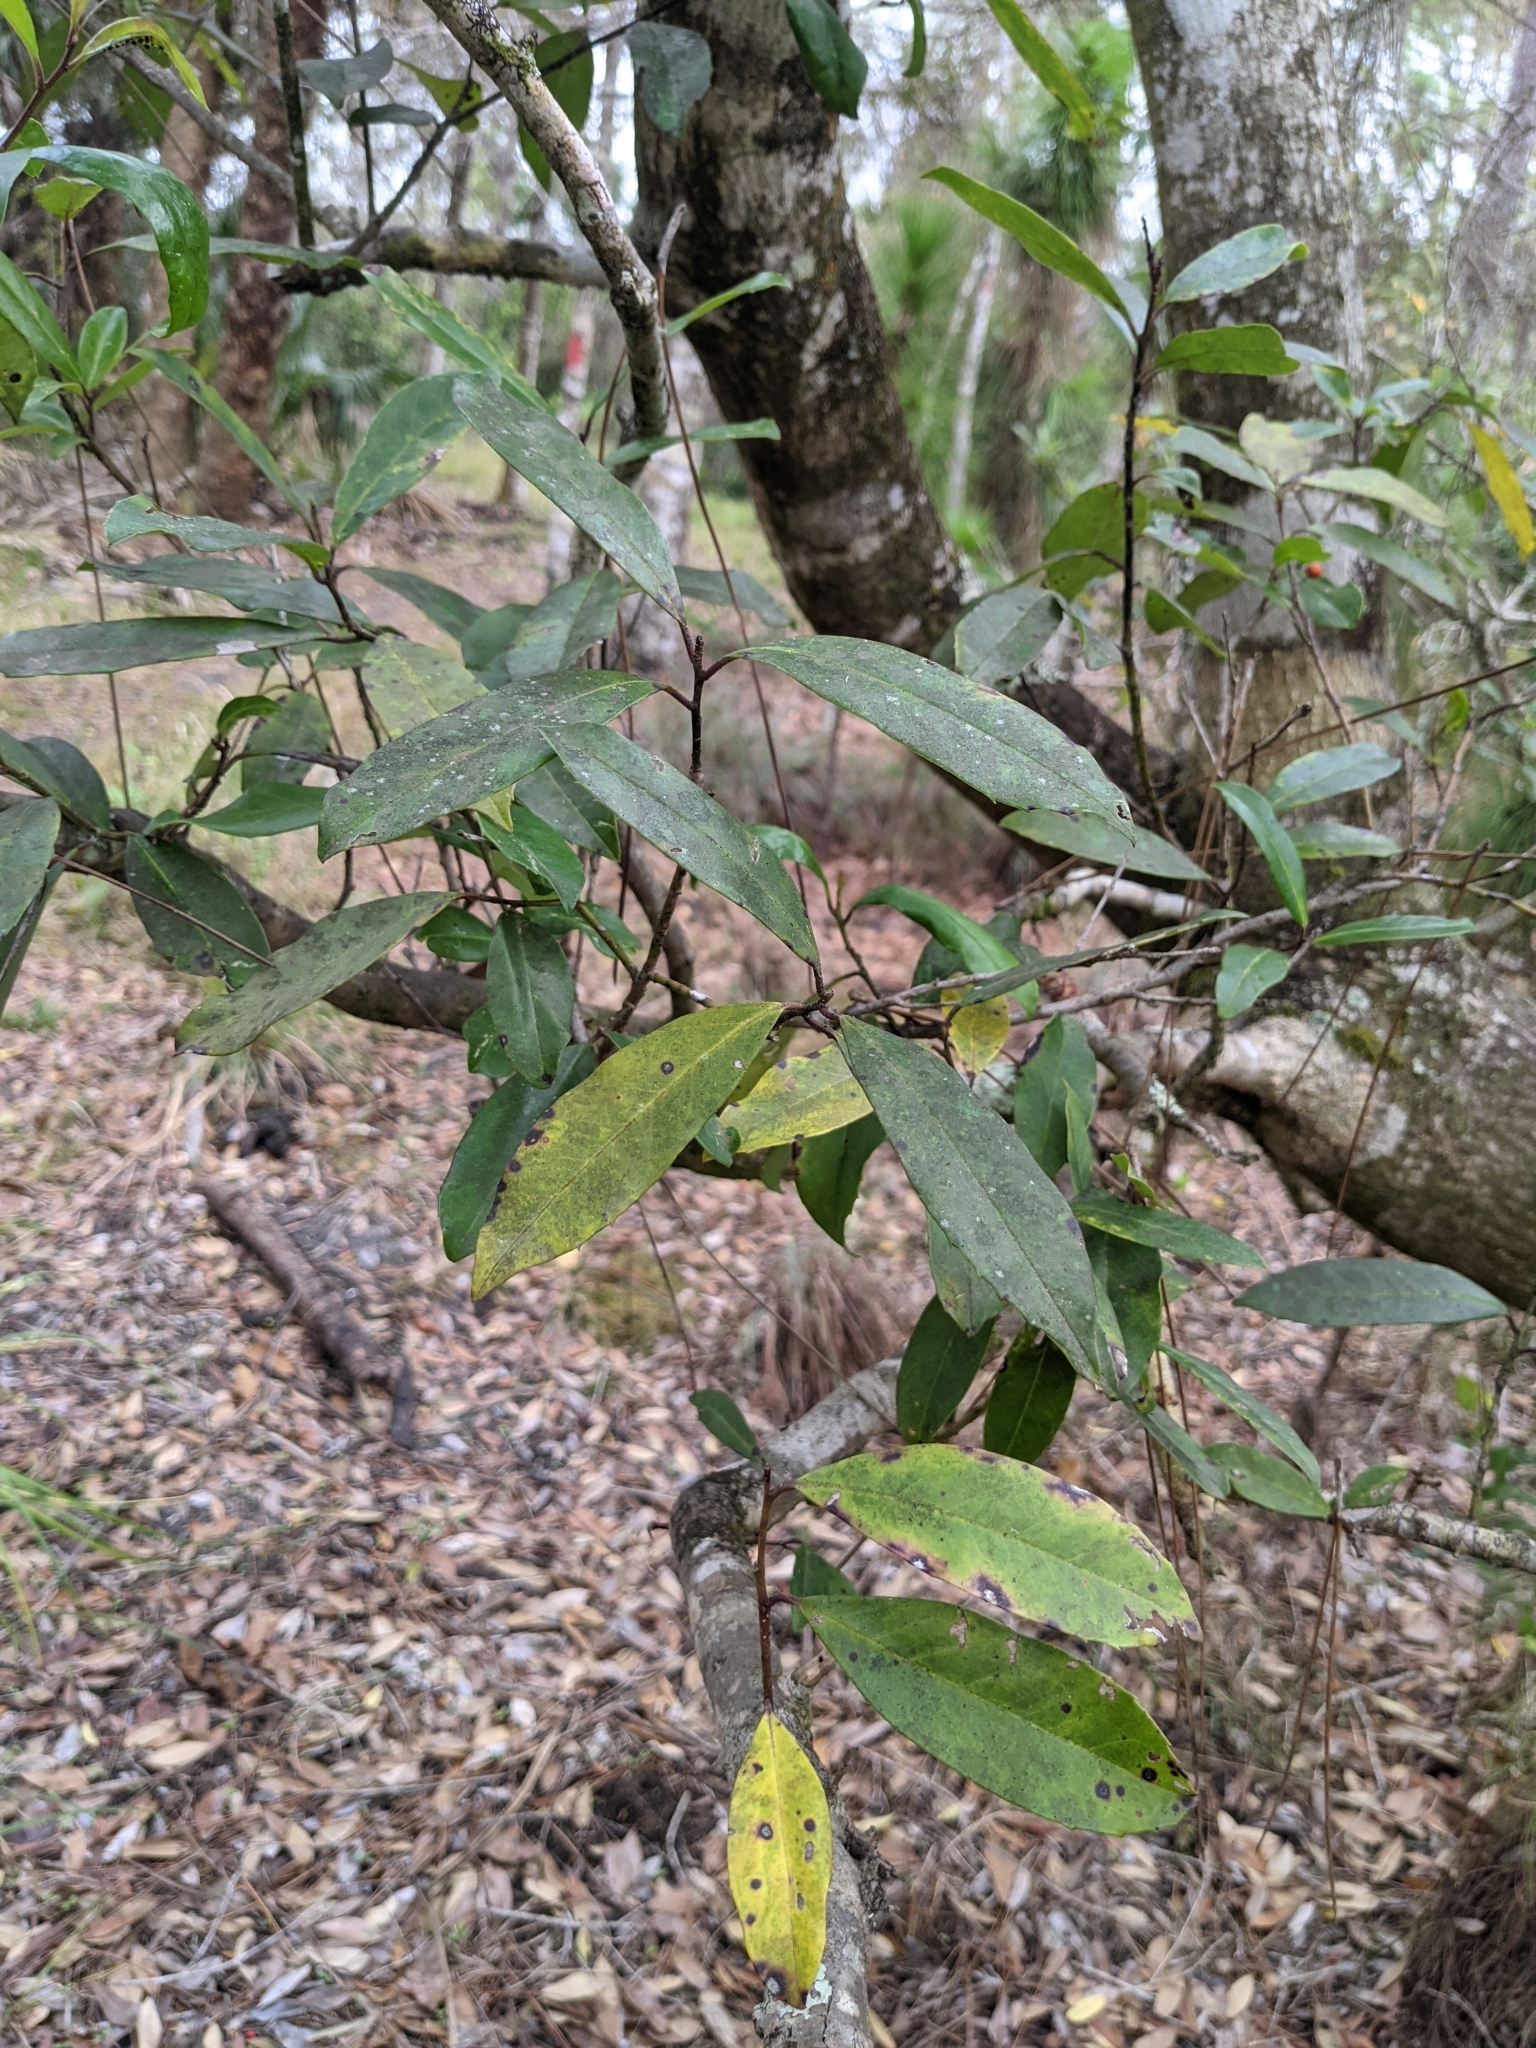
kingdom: Plantae
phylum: Tracheophyta
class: Magnoliopsida
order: Aquifoliales
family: Aquifoliaceae
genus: Ilex
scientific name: Ilex cassine
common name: Dahoon
